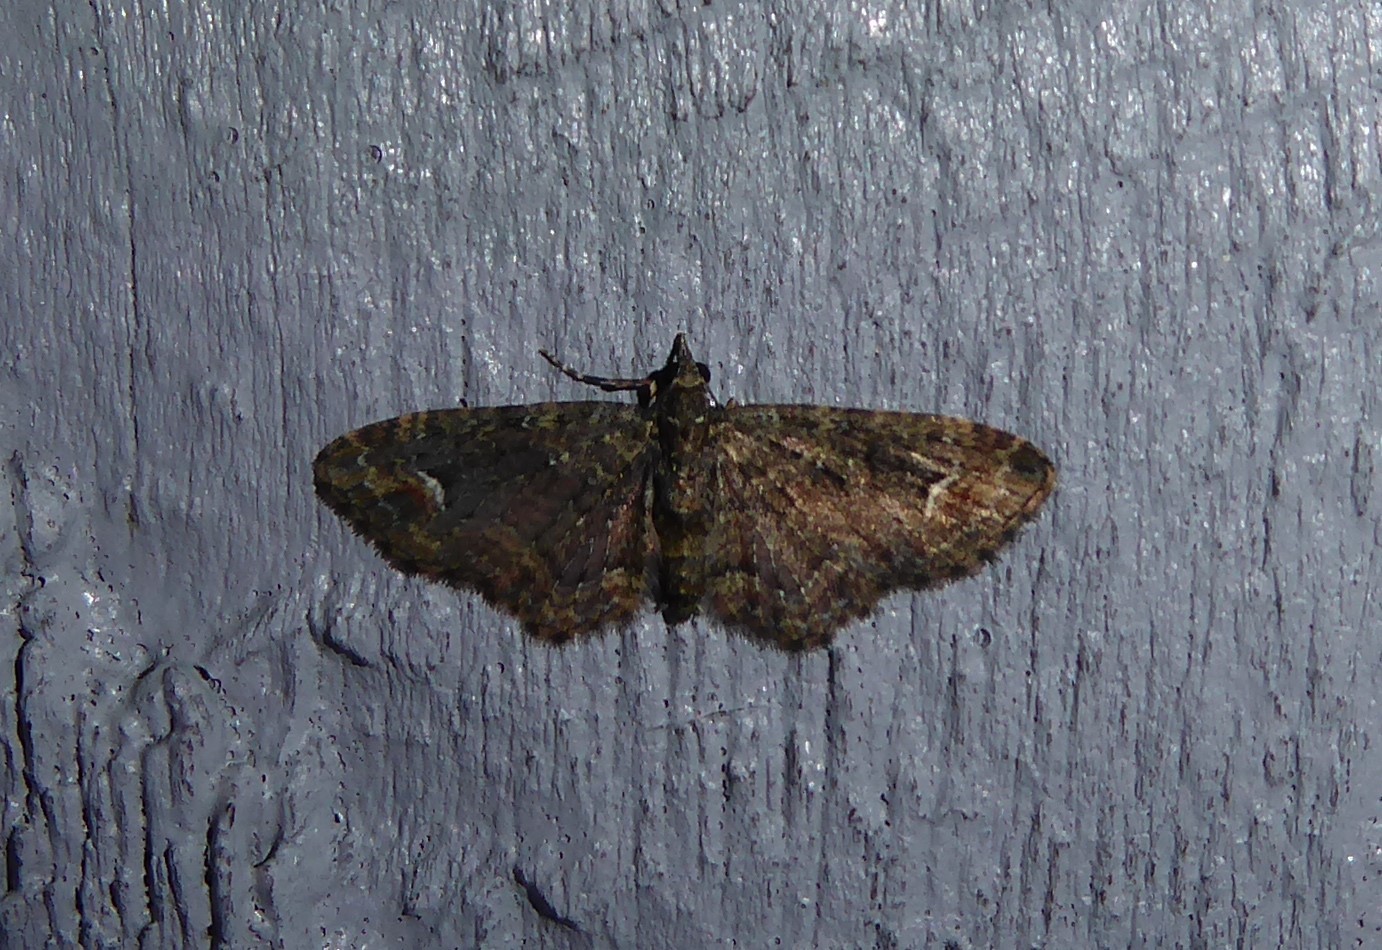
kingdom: Animalia
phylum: Arthropoda
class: Insecta
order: Lepidoptera
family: Geometridae
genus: Pasiphilodes
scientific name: Pasiphilodes testulata
